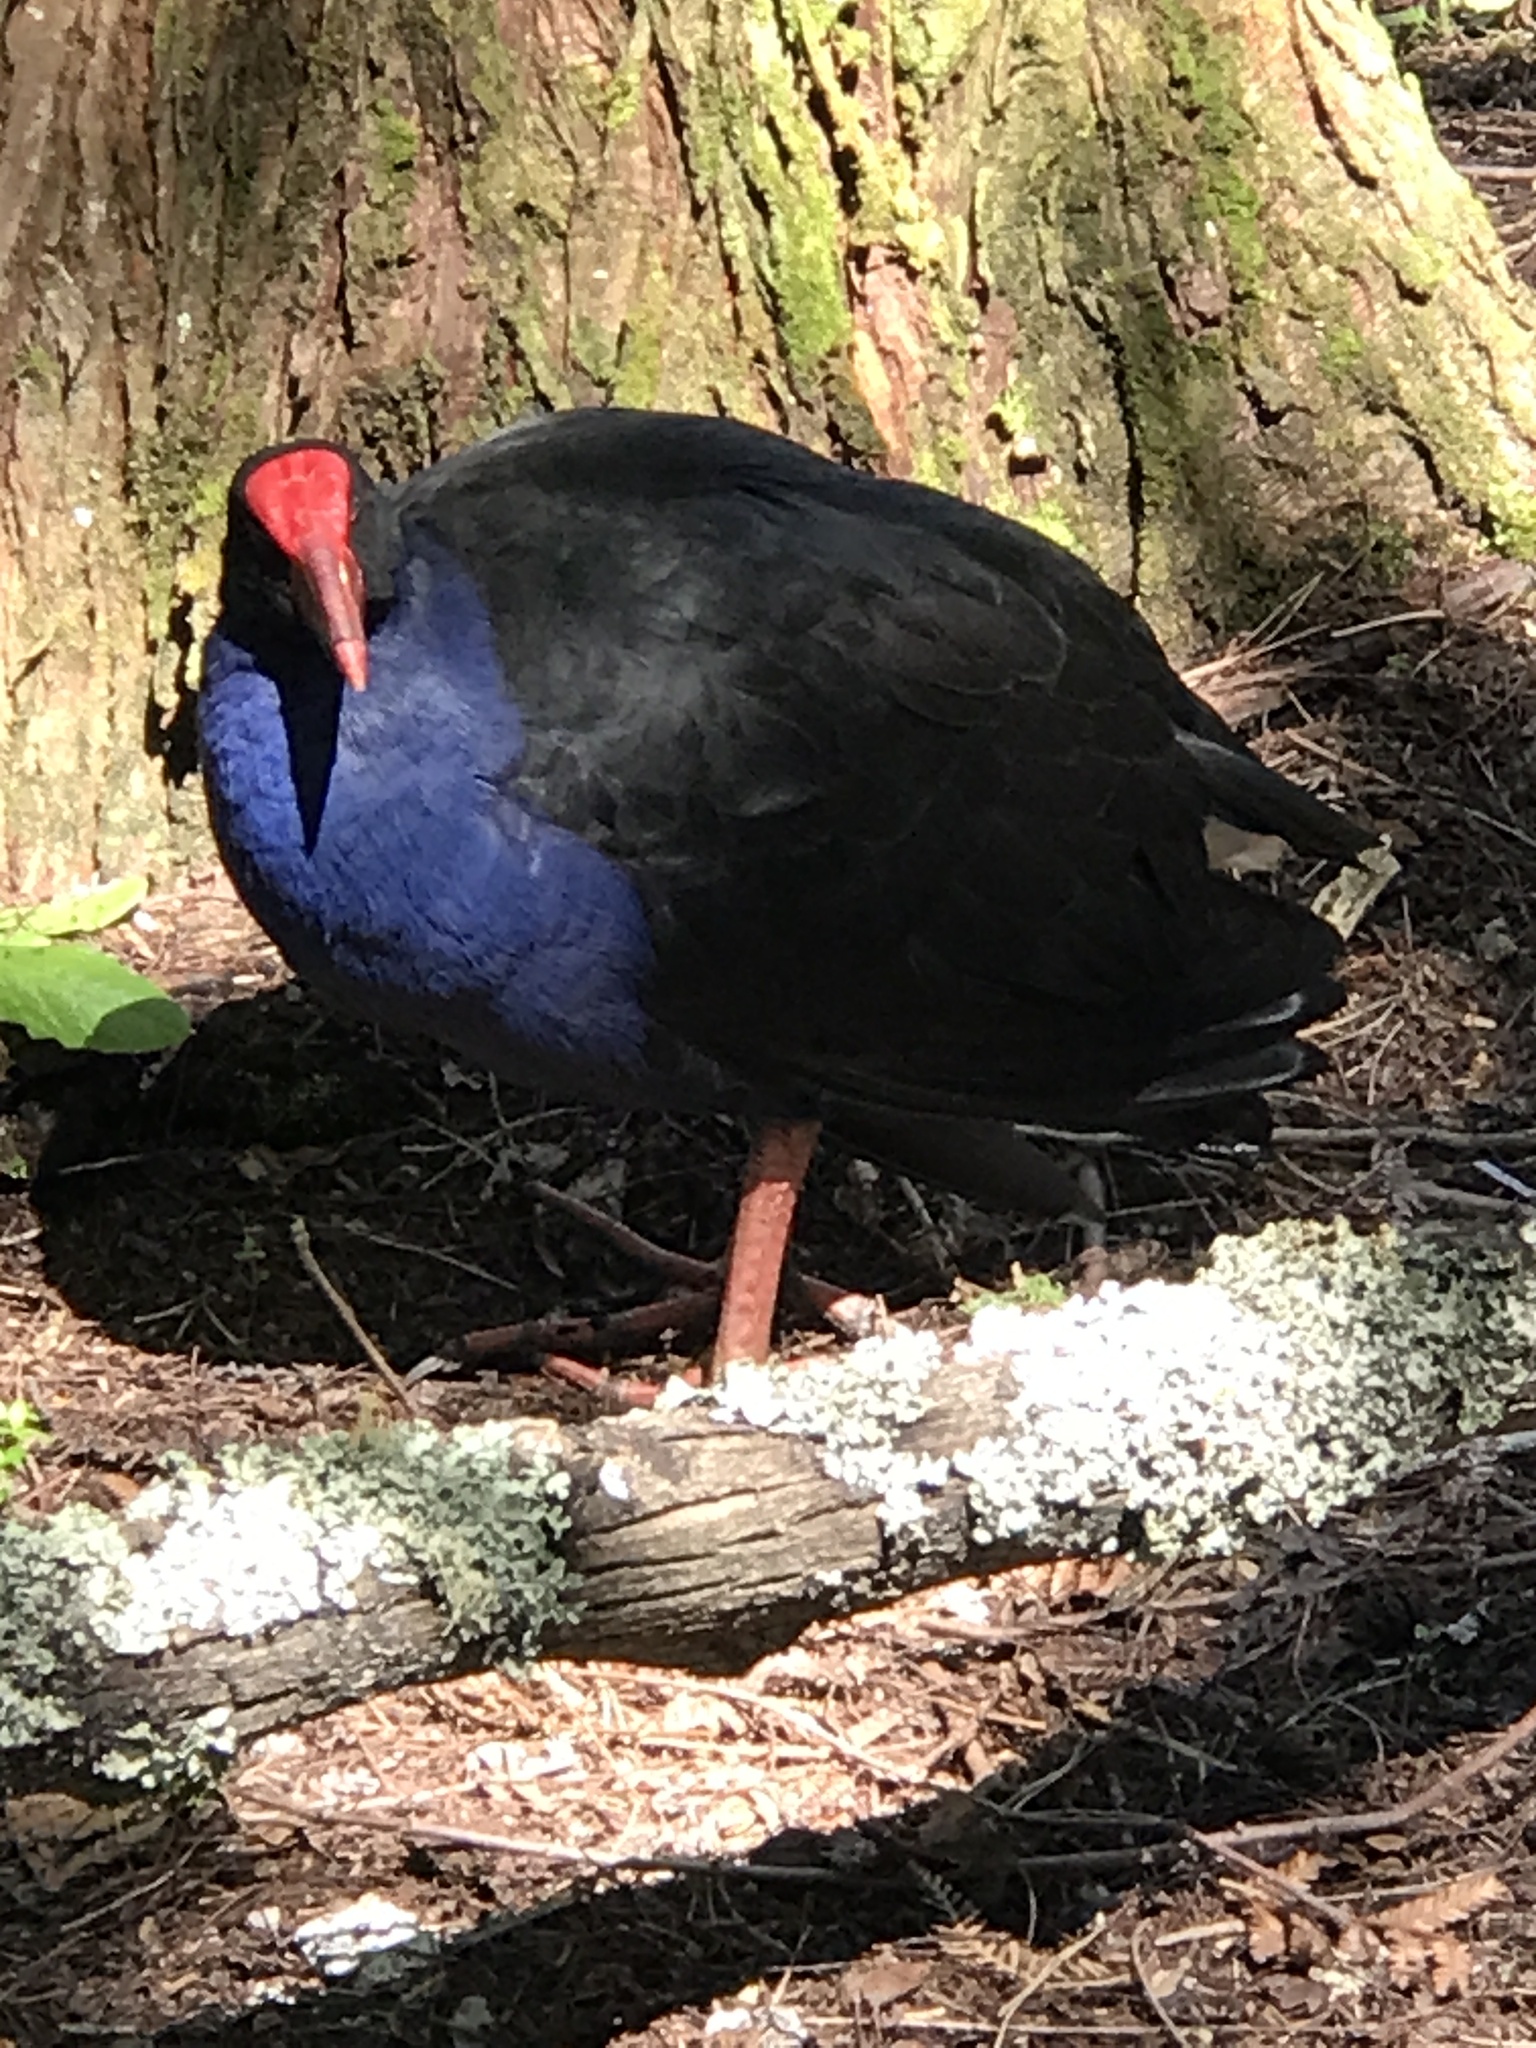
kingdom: Animalia
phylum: Chordata
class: Aves
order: Gruiformes
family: Rallidae
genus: Porphyrio
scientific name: Porphyrio melanotus
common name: Australasian swamphen
